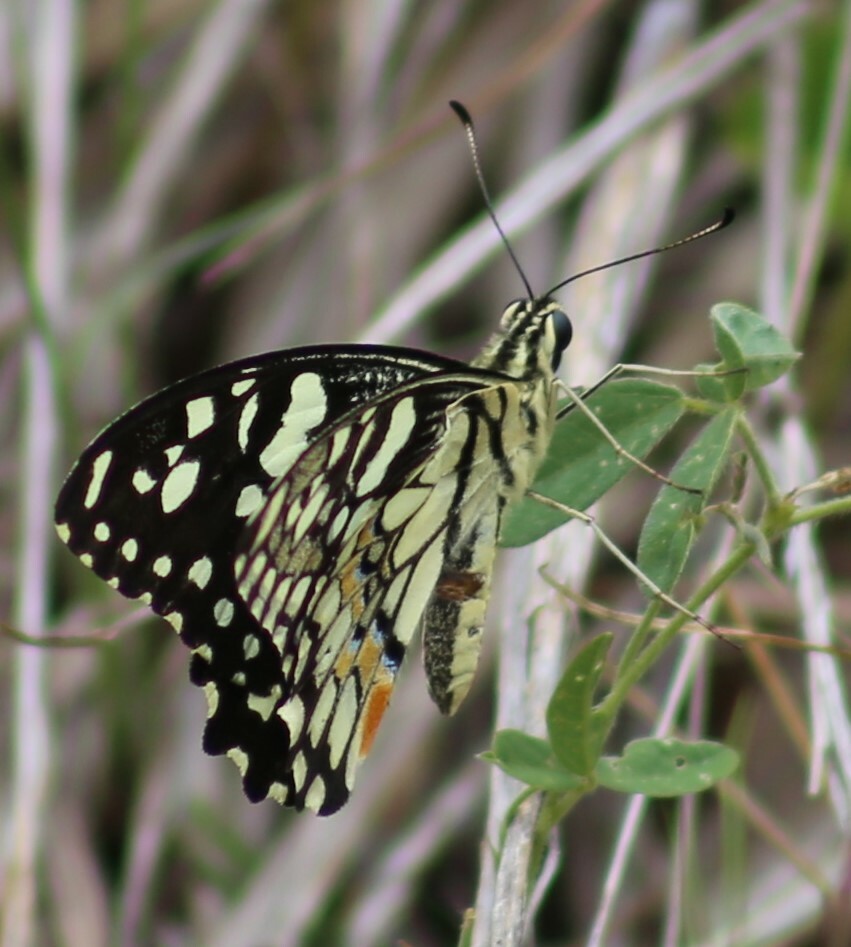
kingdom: Animalia
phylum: Arthropoda
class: Insecta
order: Lepidoptera
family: Papilionidae
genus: Papilio
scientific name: Papilio demoleus
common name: Lime butterfly
